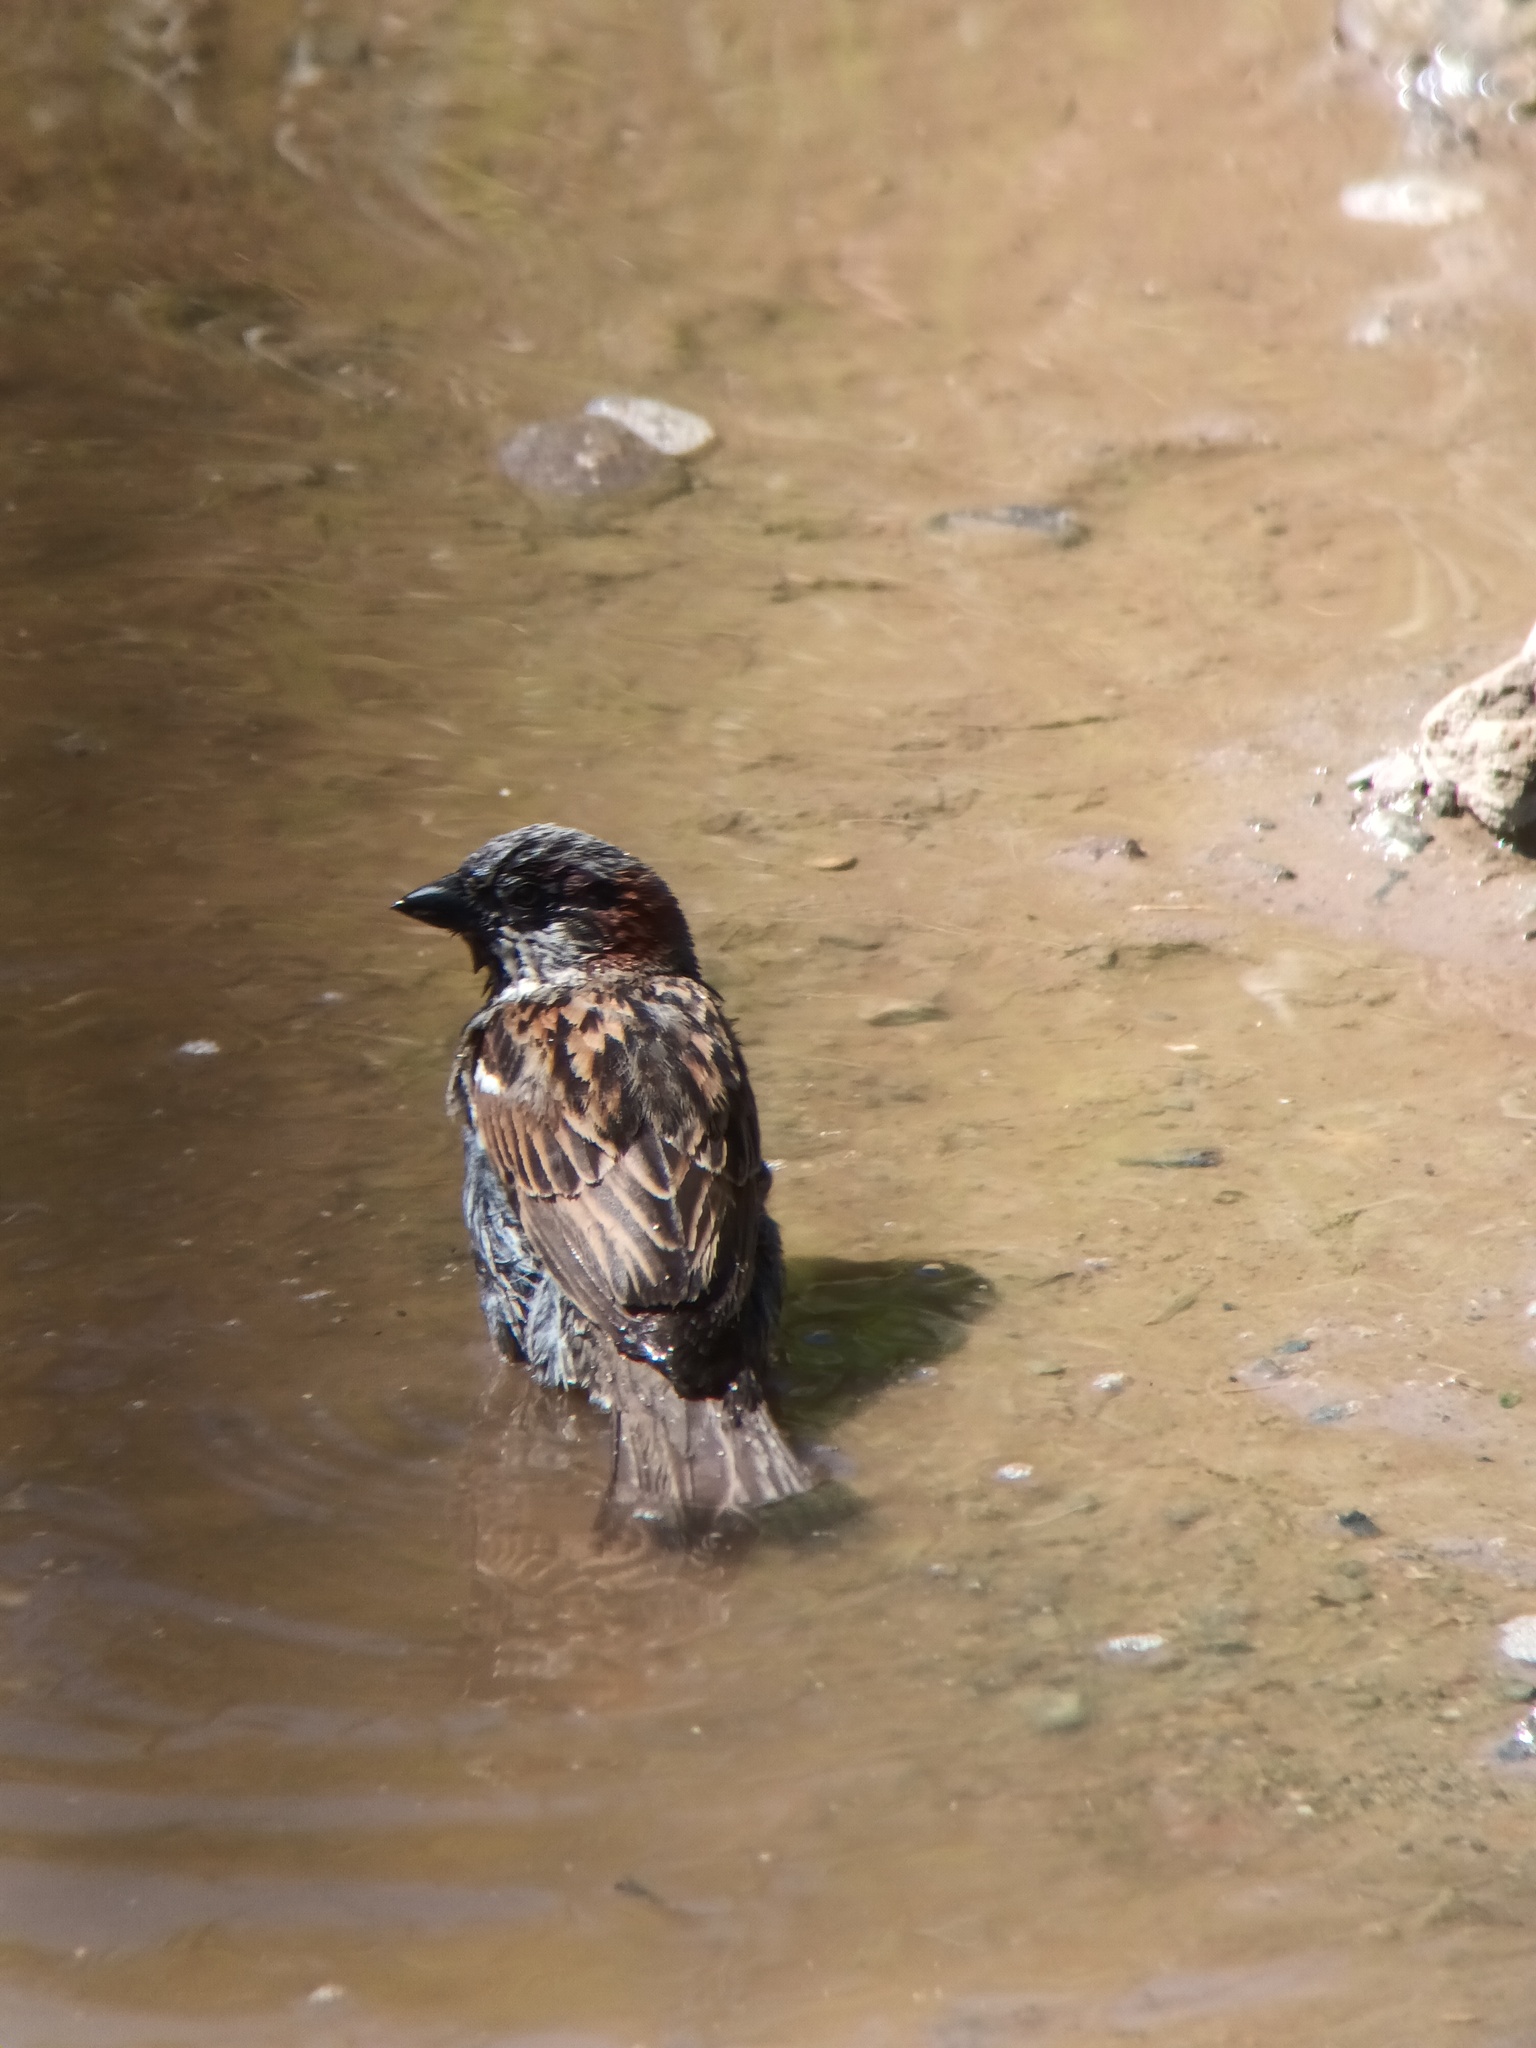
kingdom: Animalia
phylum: Chordata
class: Aves
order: Passeriformes
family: Passeridae
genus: Passer
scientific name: Passer domesticus
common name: House sparrow
